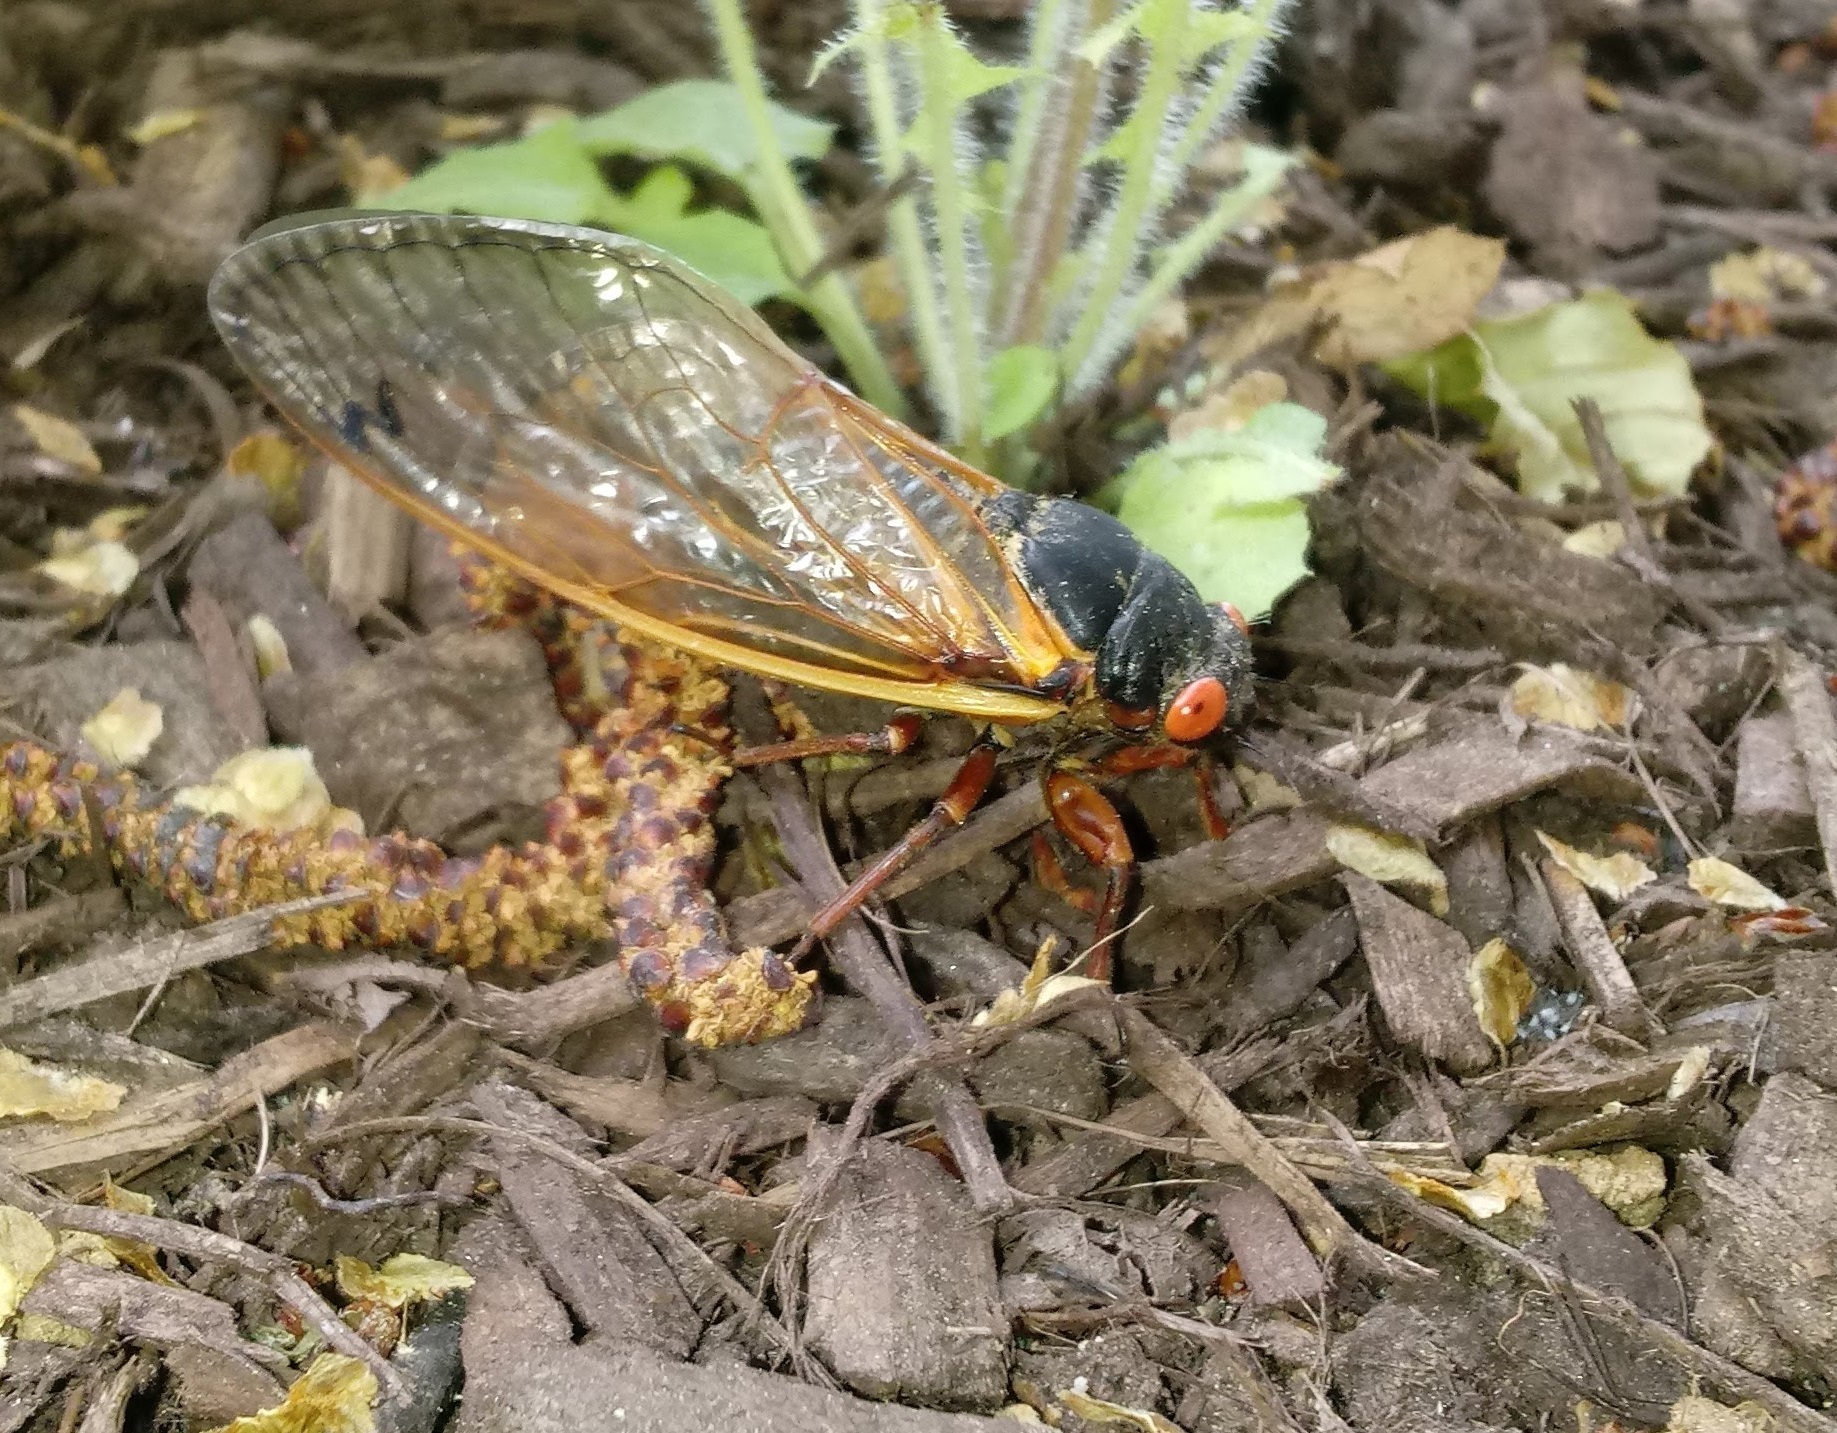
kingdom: Animalia
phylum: Arthropoda
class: Insecta
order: Hemiptera
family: Cicadidae
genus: Magicicada
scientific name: Magicicada septendecim
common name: Periodical cicada
